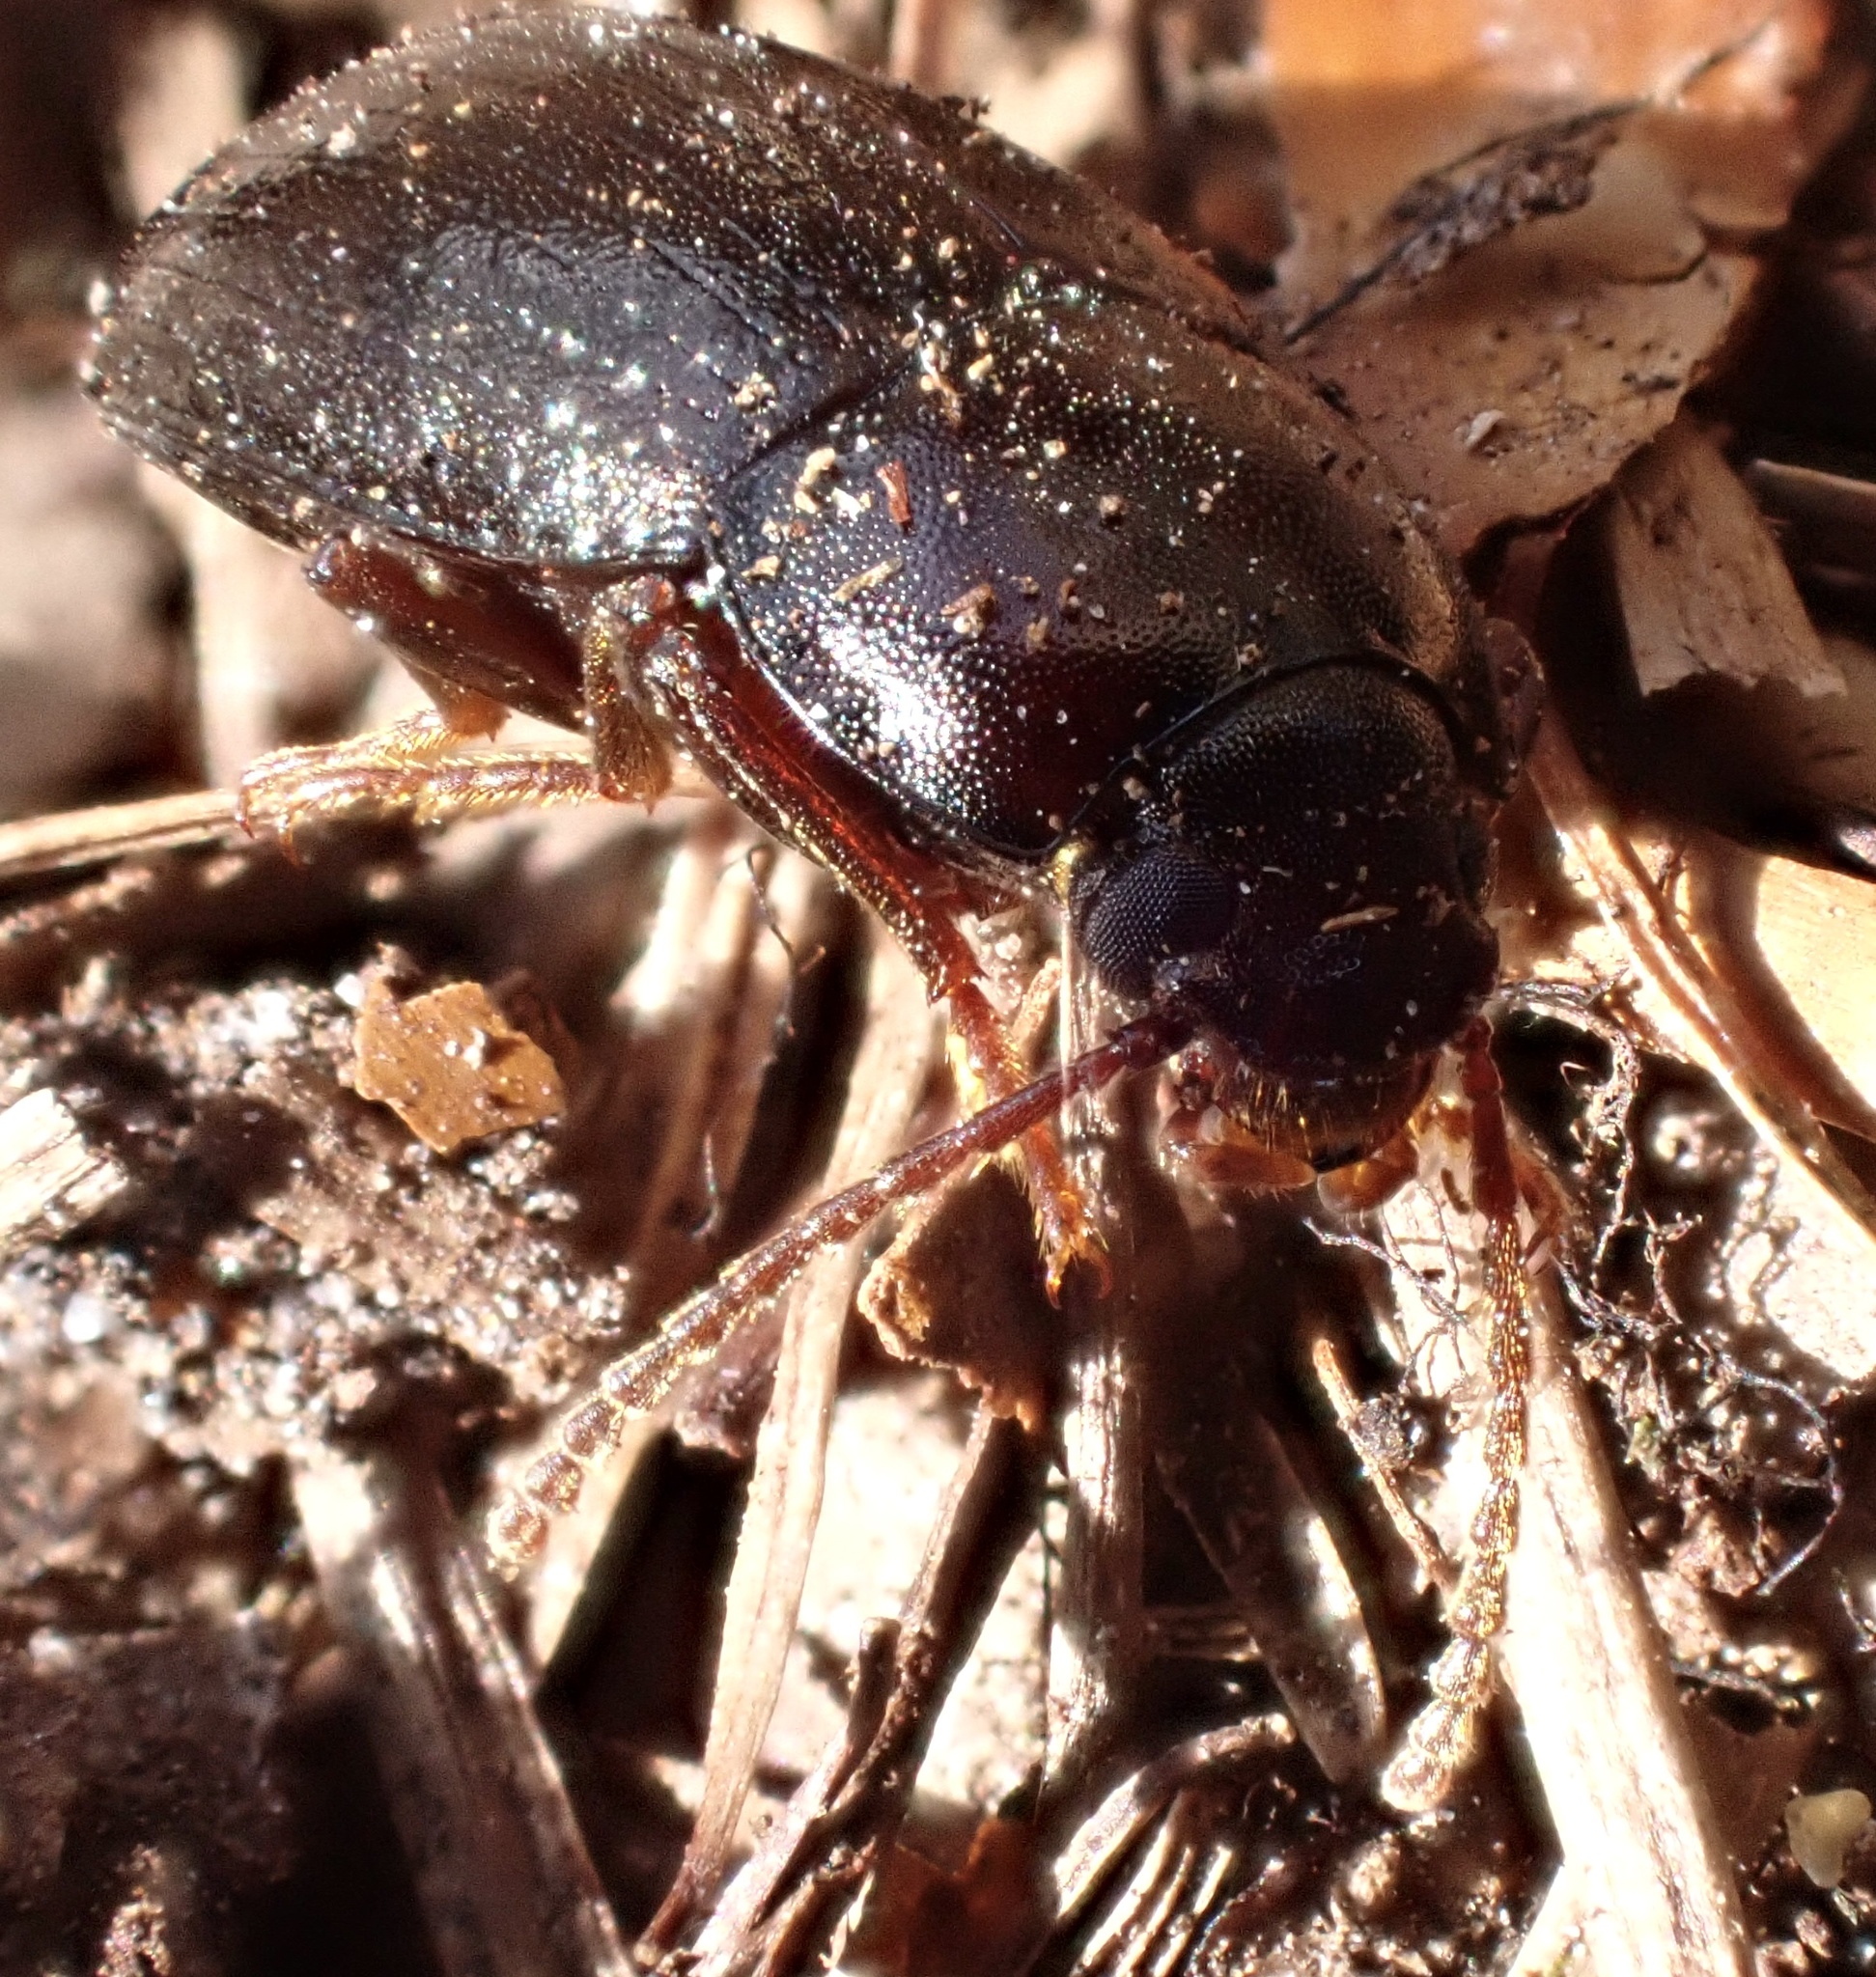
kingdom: Animalia
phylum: Arthropoda
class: Insecta
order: Coleoptera
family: Tenebrionidae
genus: Nalassus
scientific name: Nalassus laevioctostriatus
